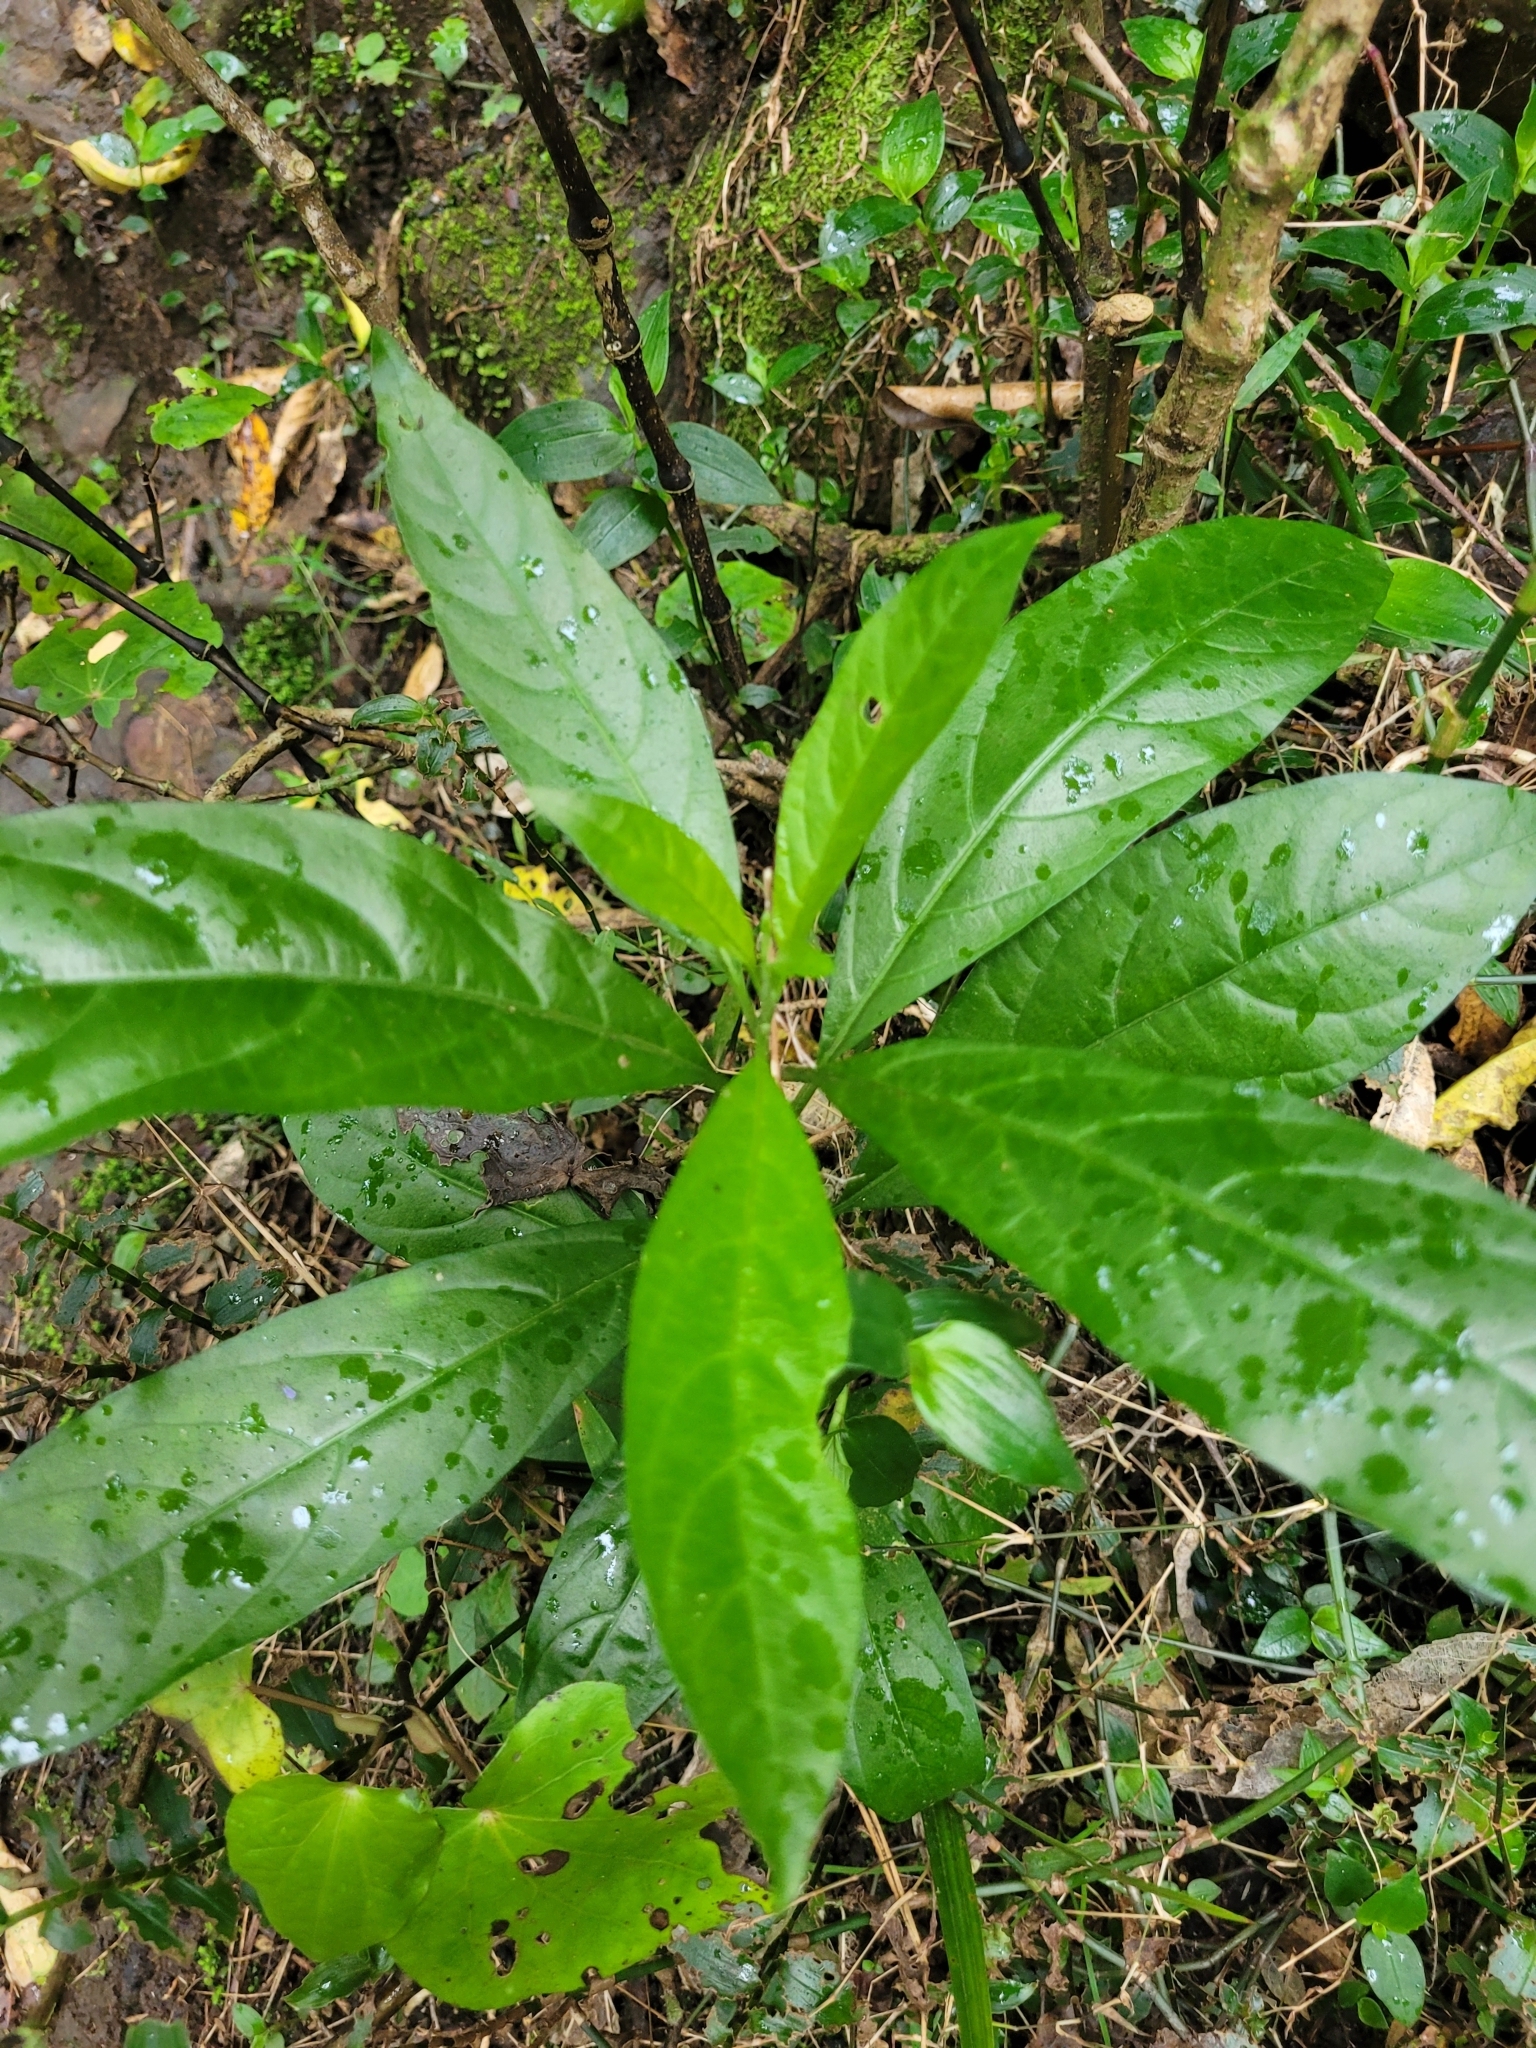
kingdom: Plantae
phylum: Tracheophyta
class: Magnoliopsida
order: Solanales
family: Solanaceae
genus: Cestrum
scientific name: Cestrum nocturnum
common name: Night jessamine
